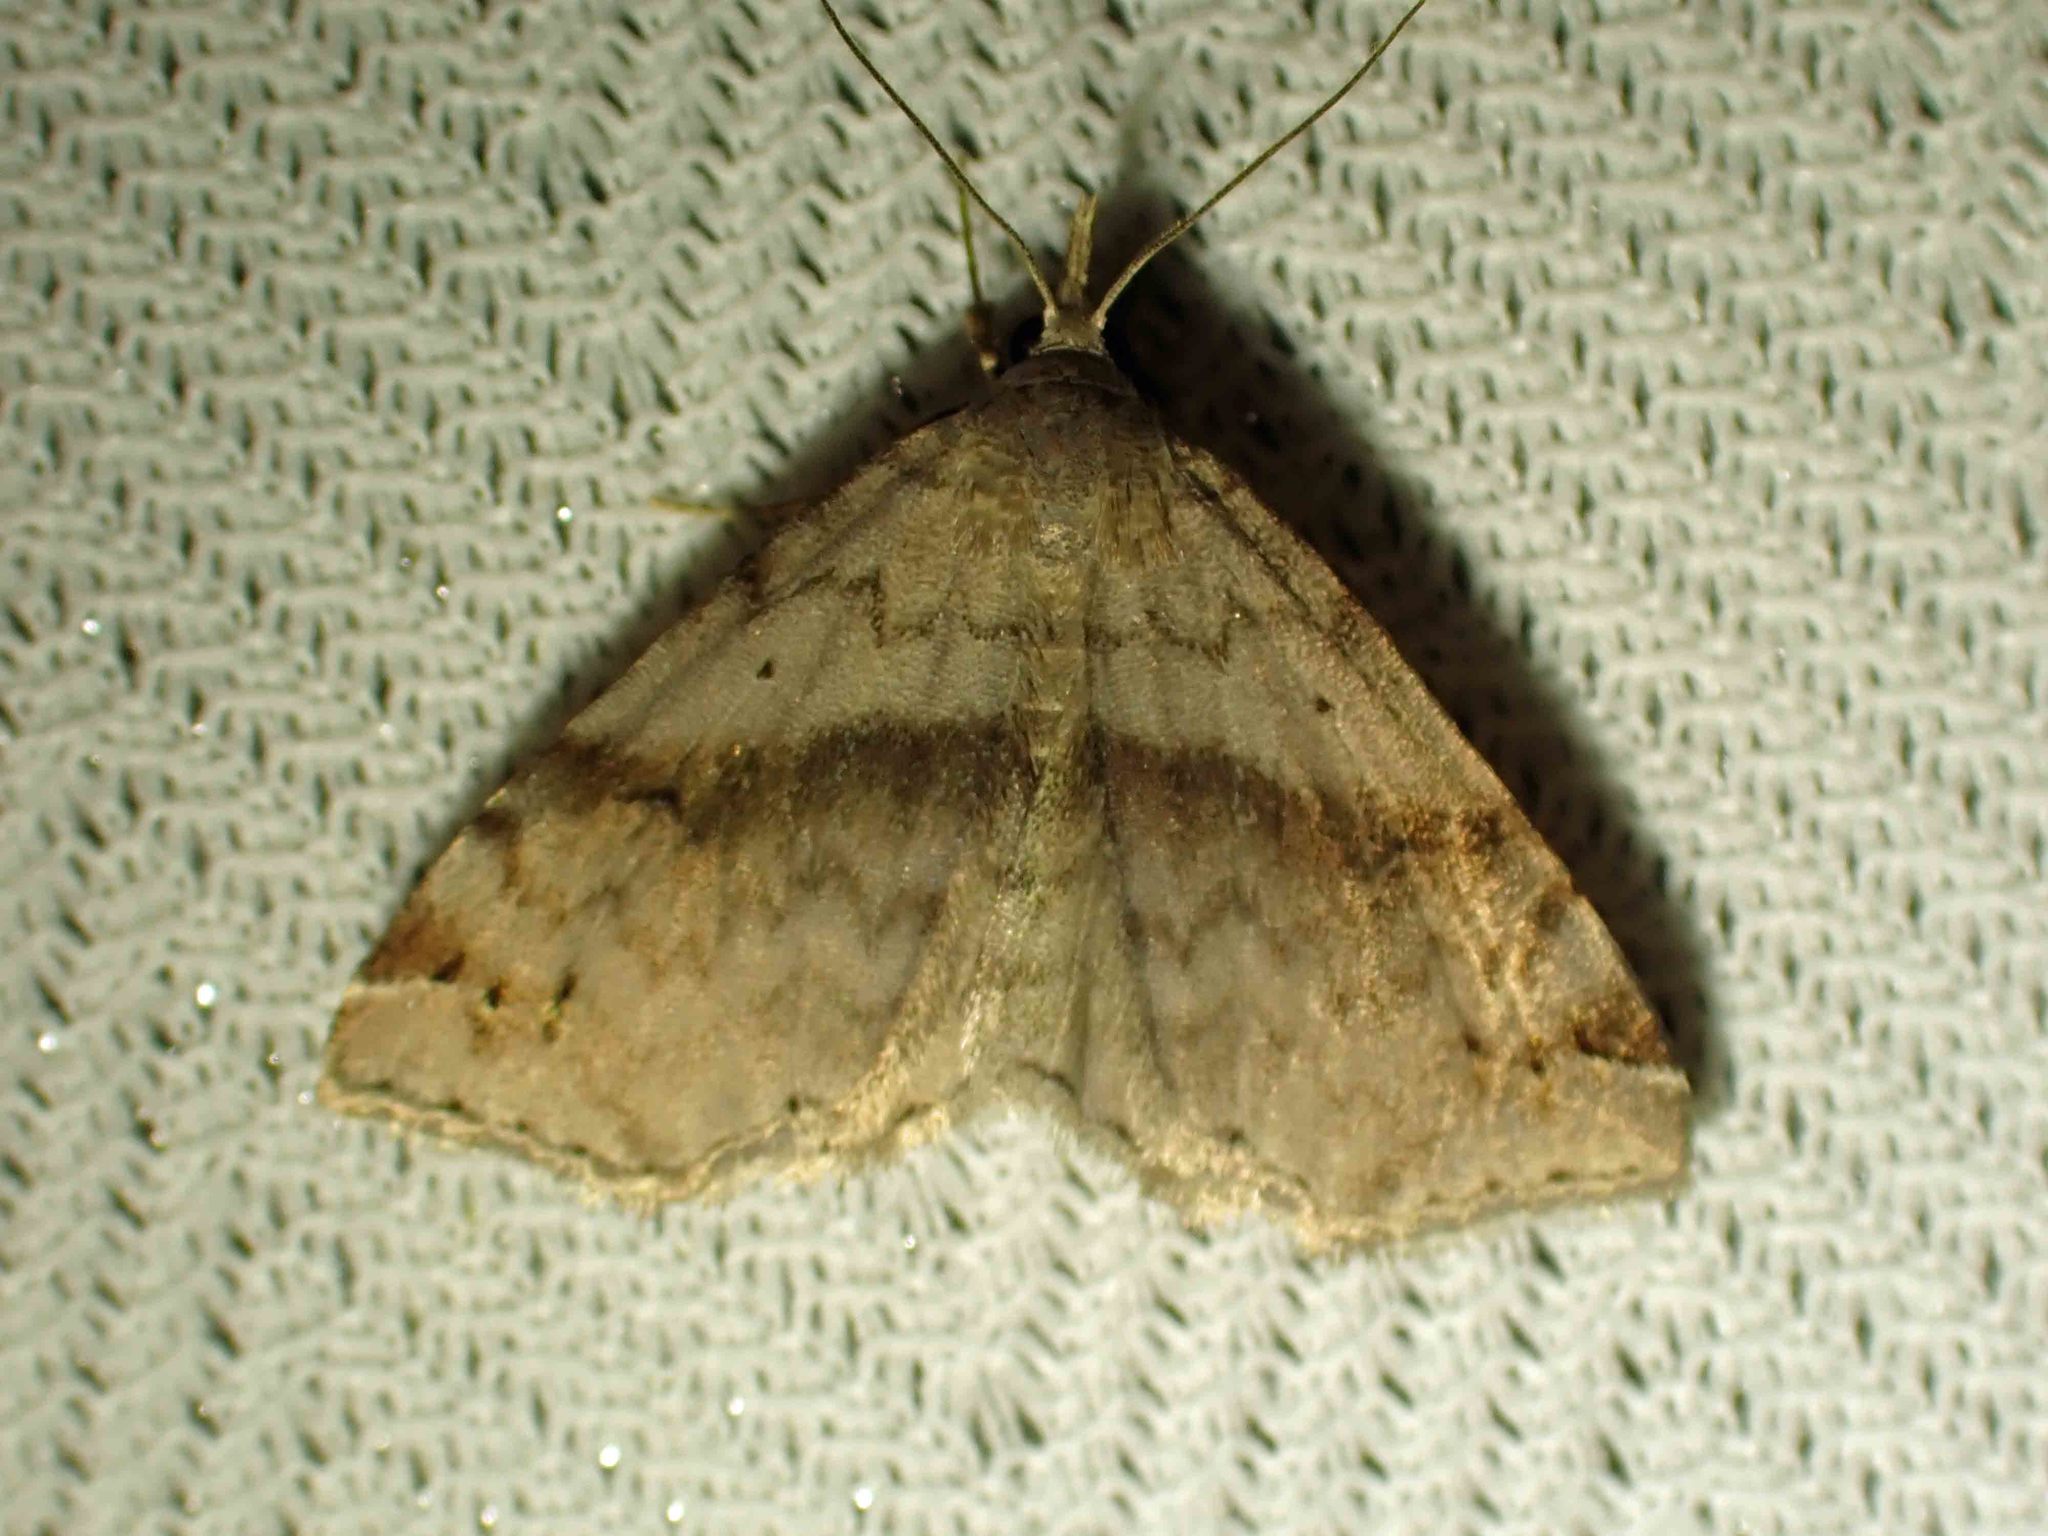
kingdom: Animalia
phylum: Arthropoda
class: Insecta
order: Lepidoptera
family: Erebidae
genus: Spargaloma
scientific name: Spargaloma sexpunctata
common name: Six-spotted gray
